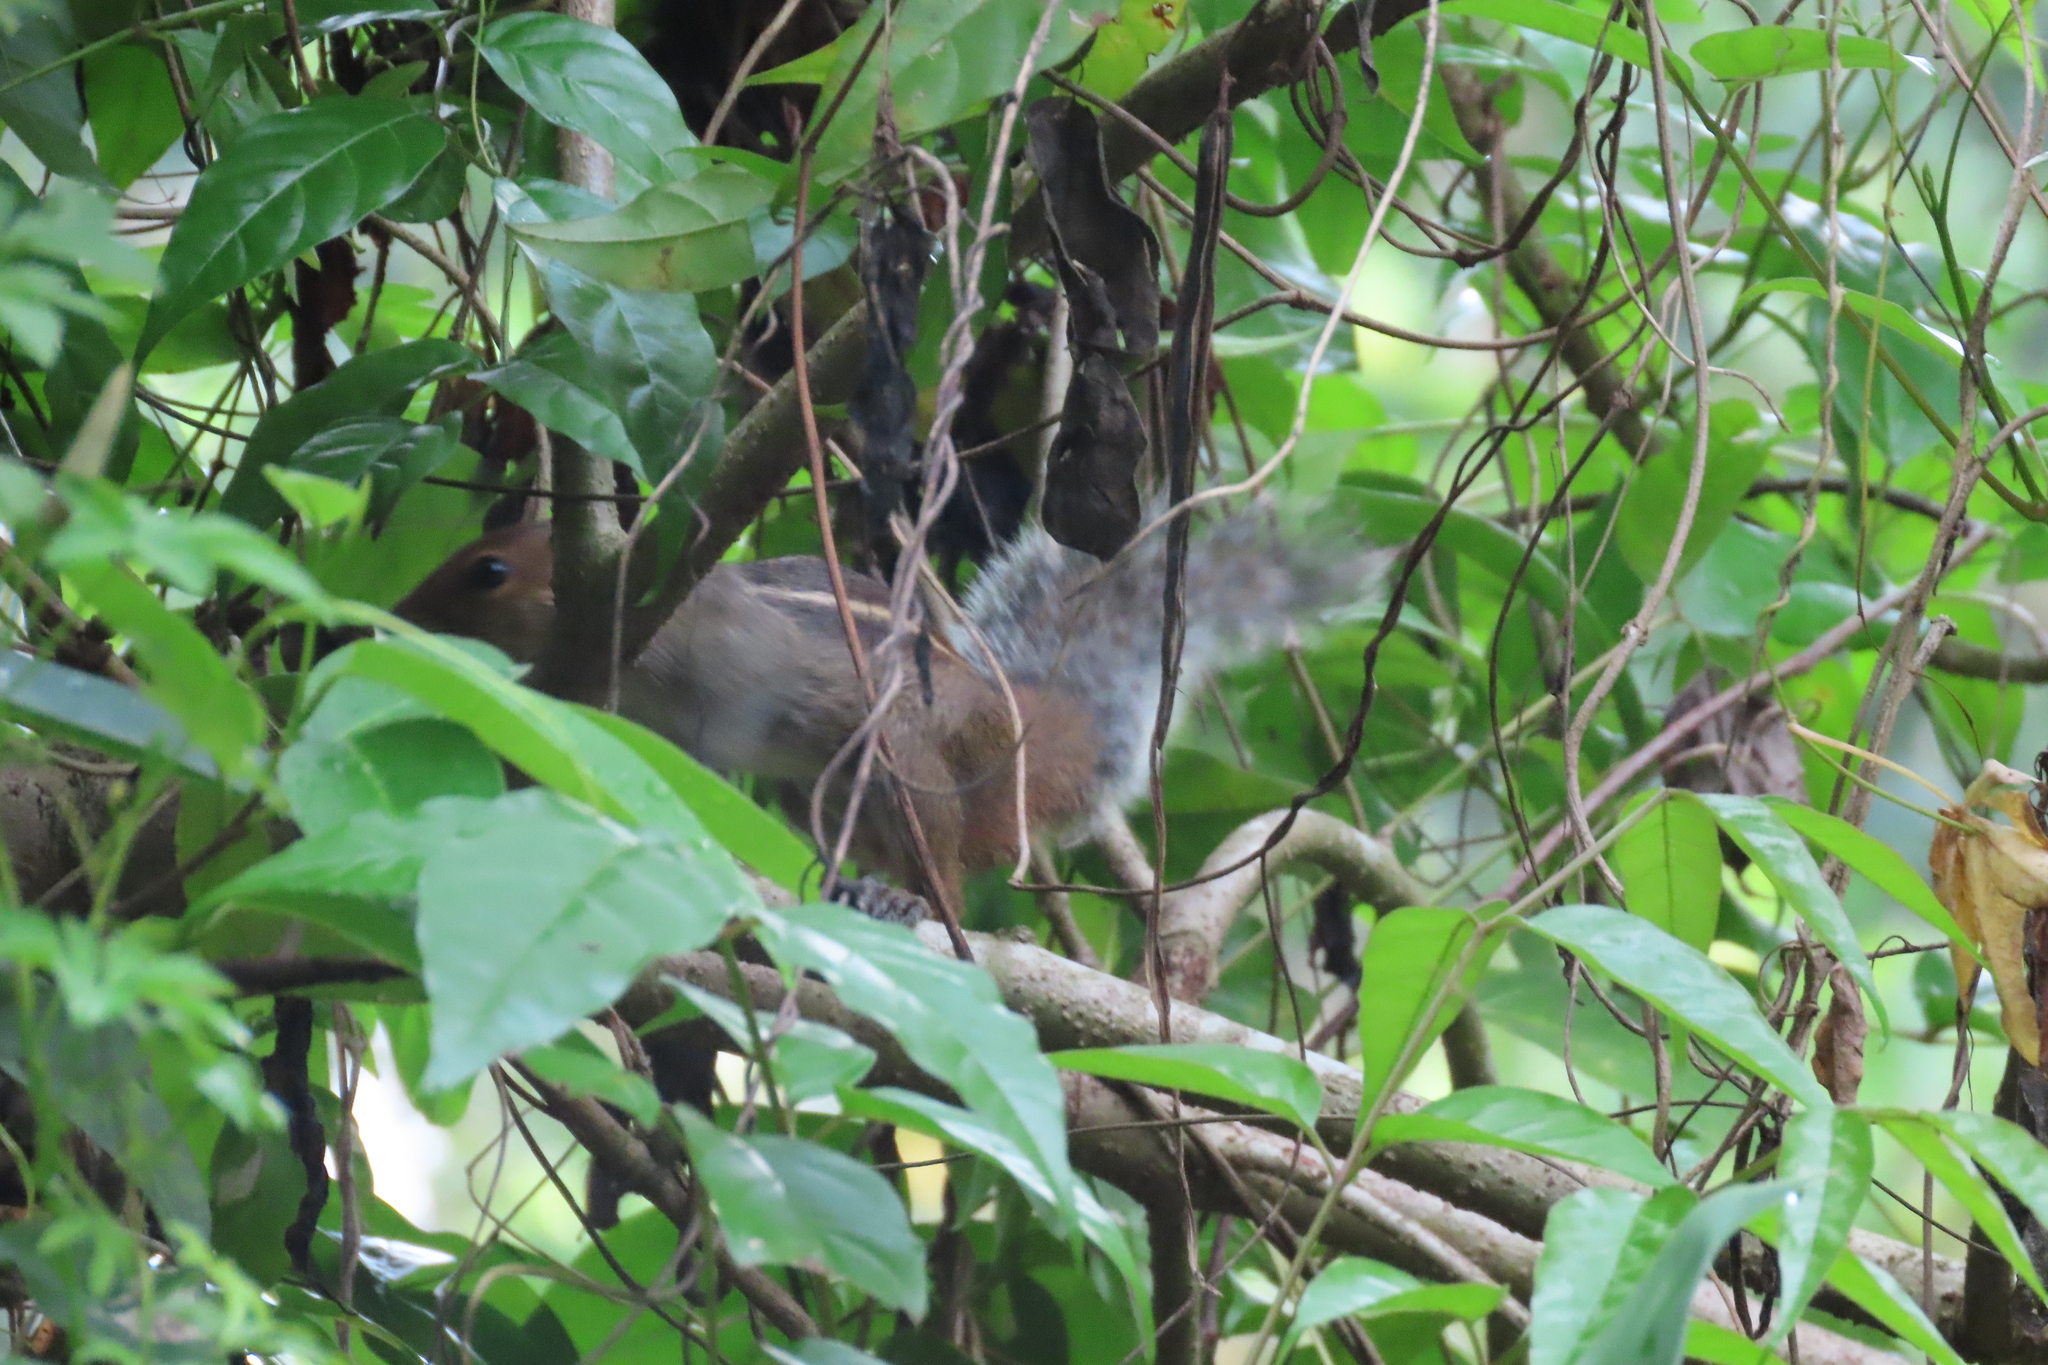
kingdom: Animalia
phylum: Chordata
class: Mammalia
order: Rodentia
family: Sciuridae
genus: Funambulus
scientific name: Funambulus tristriatus
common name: Jungle palm squirrel
